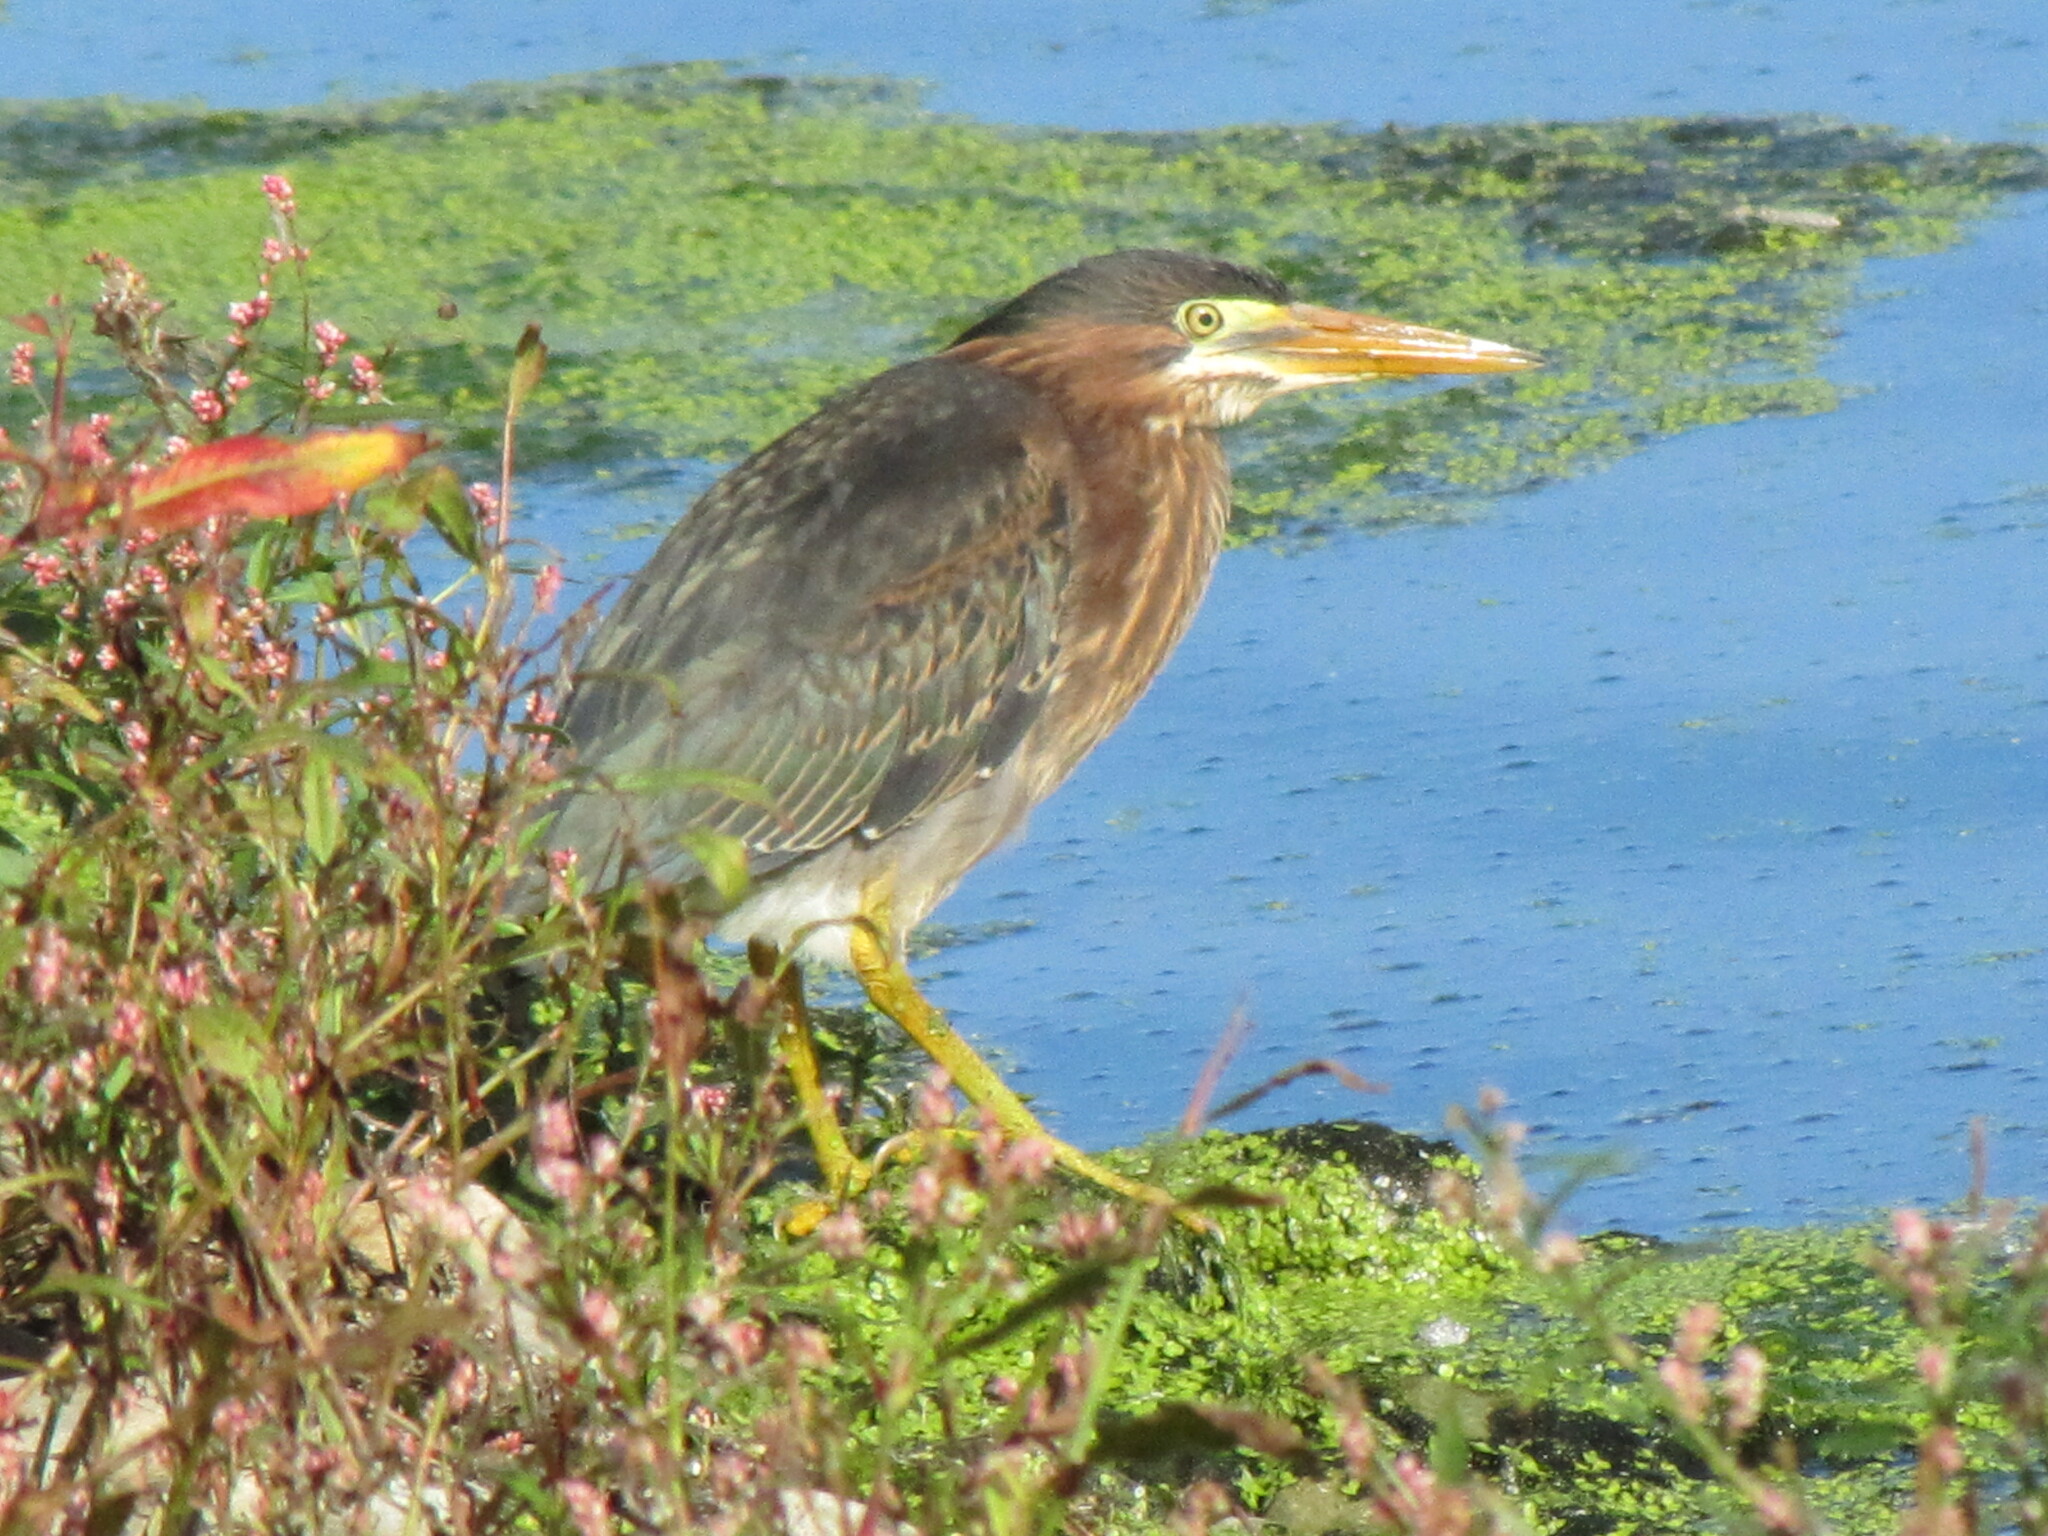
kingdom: Animalia
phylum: Chordata
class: Aves
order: Pelecaniformes
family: Ardeidae
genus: Butorides
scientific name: Butorides virescens
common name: Green heron
